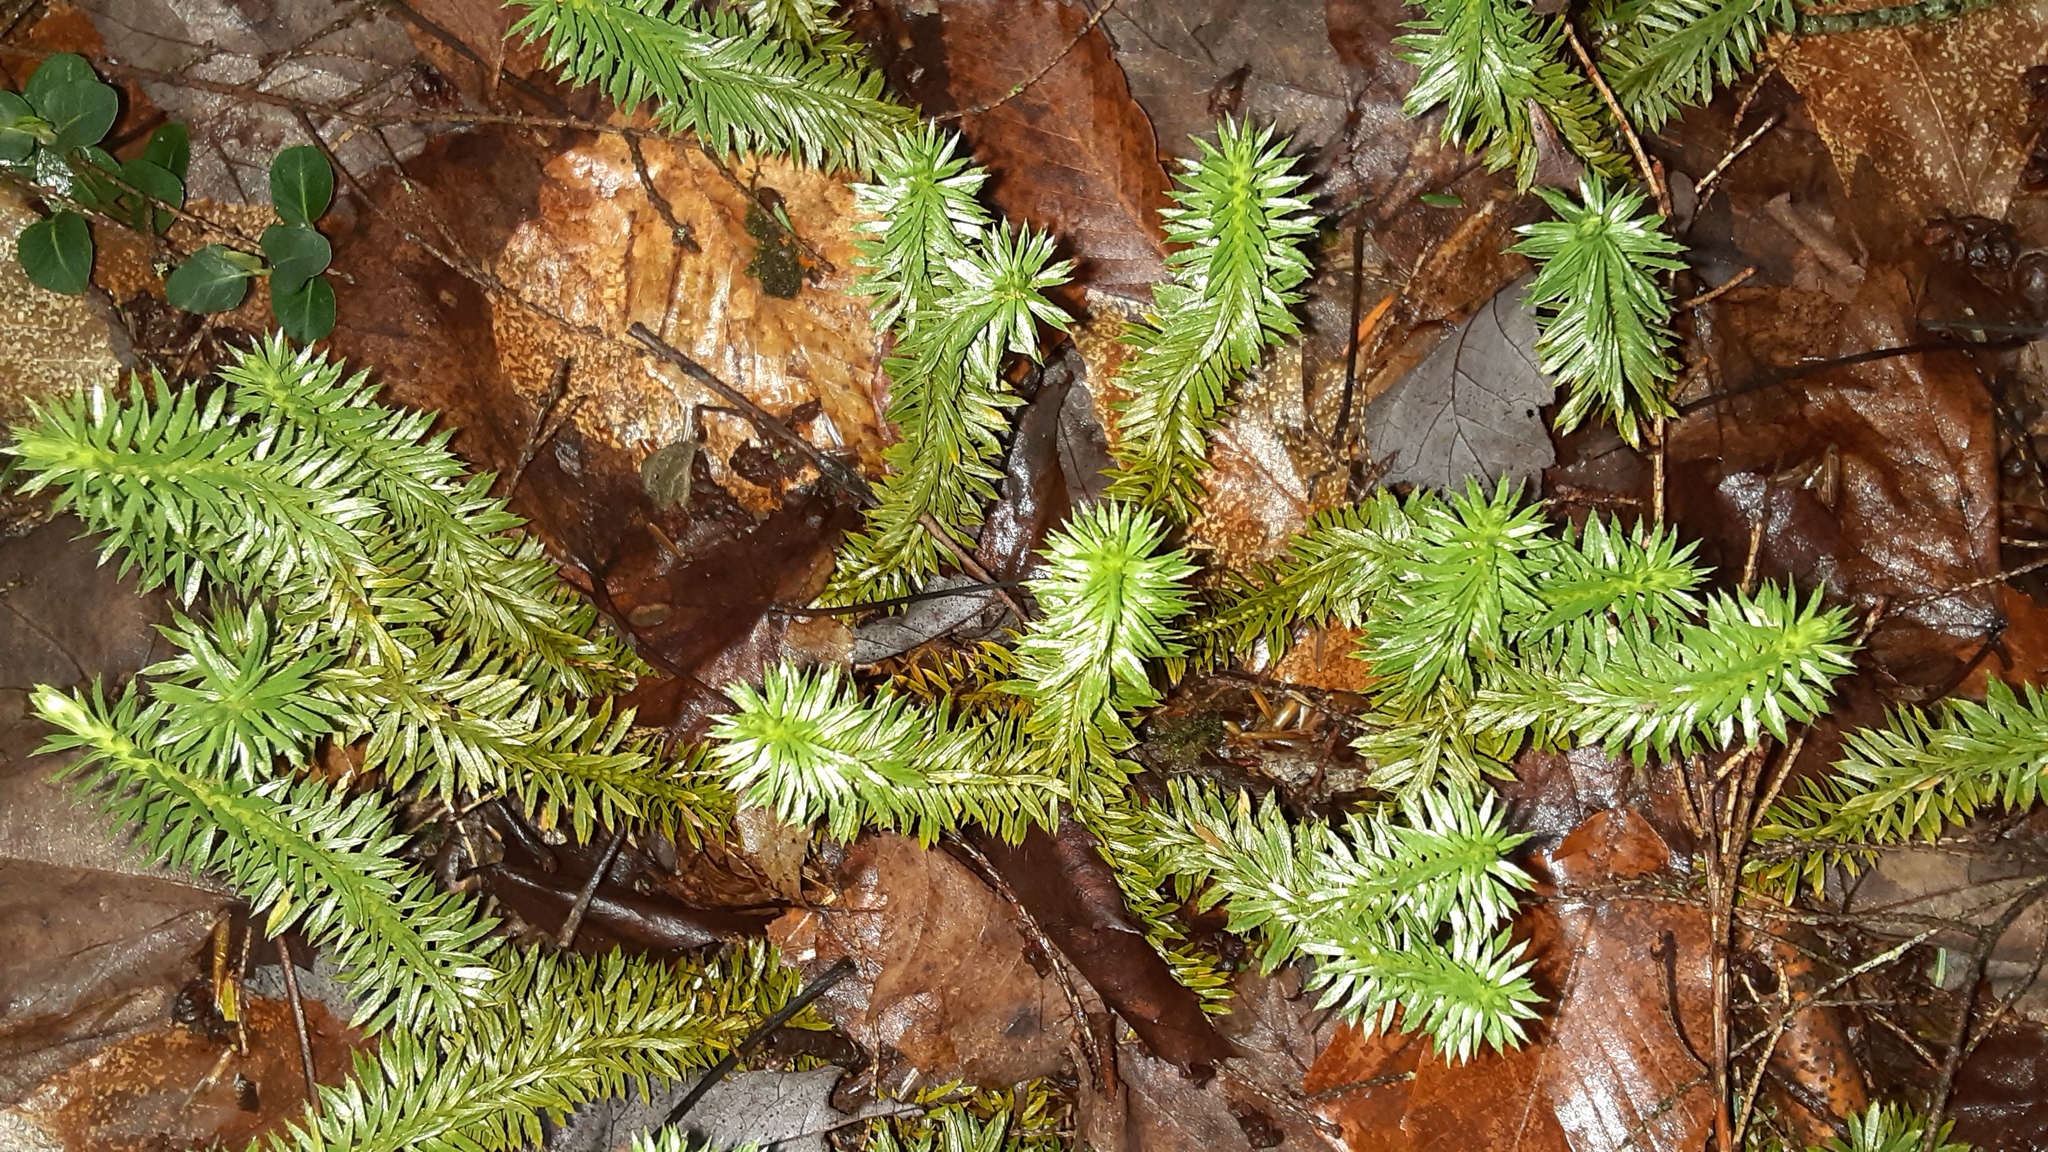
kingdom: Plantae
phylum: Tracheophyta
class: Lycopodiopsida
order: Lycopodiales
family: Lycopodiaceae
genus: Huperzia
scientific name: Huperzia lucidula
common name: Shining clubmoss
